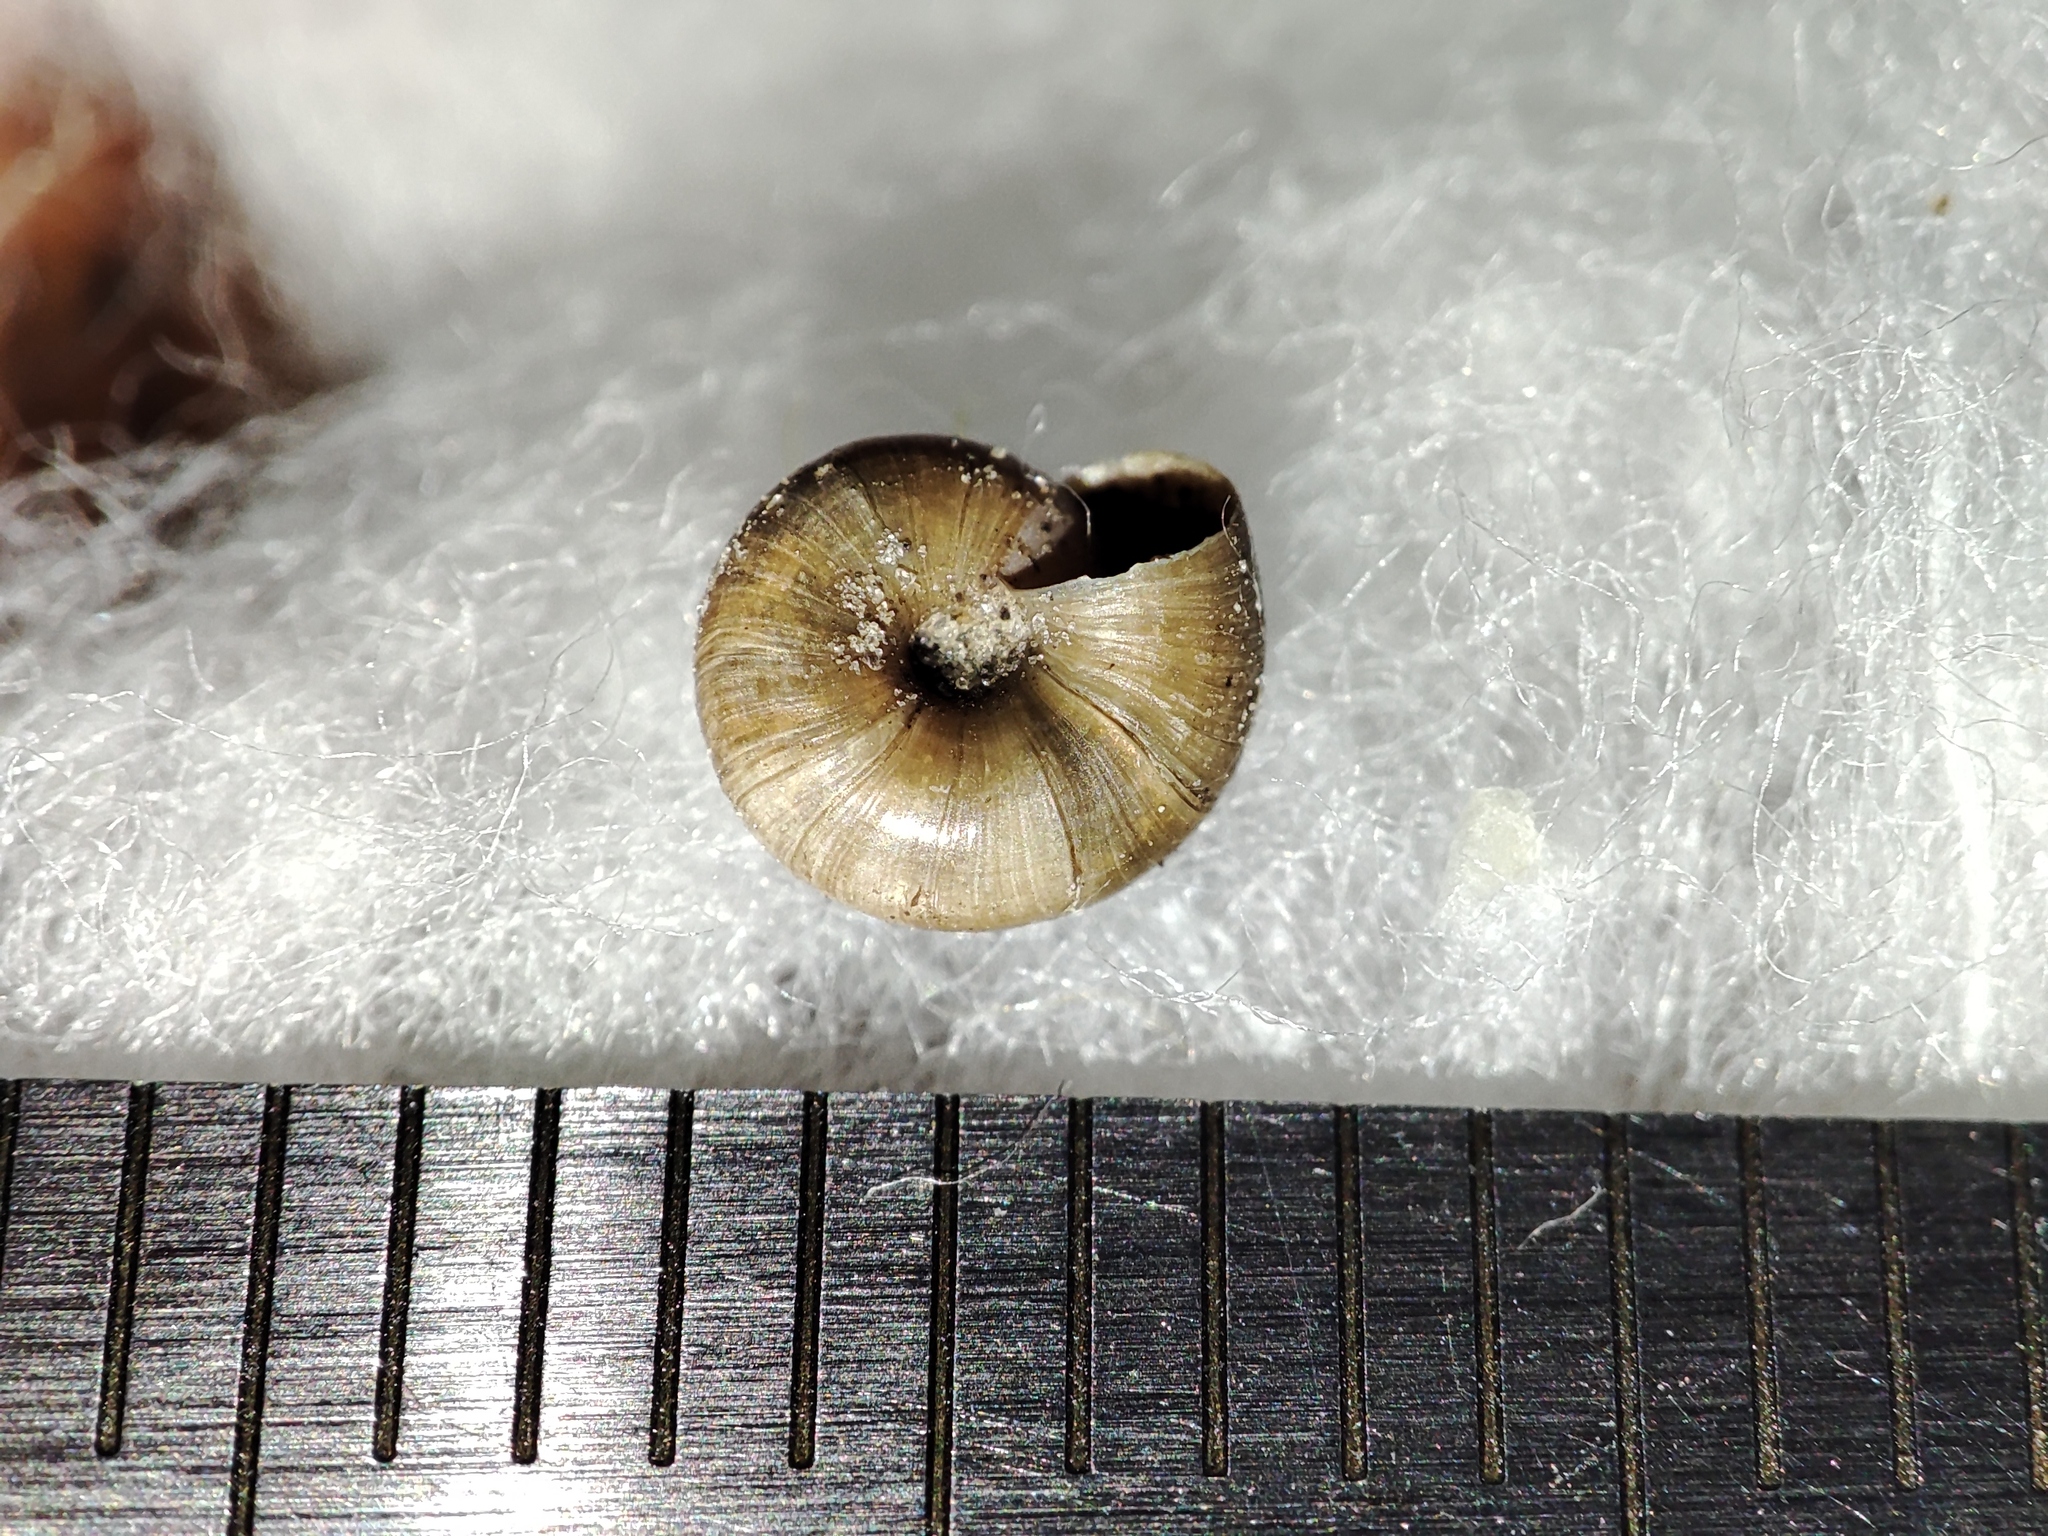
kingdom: Animalia
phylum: Mollusca
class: Gastropoda
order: Stylommatophora
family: Gastrodontidae
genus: Zonitoides
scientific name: Zonitoides nitidus
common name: Shiny glass snail
